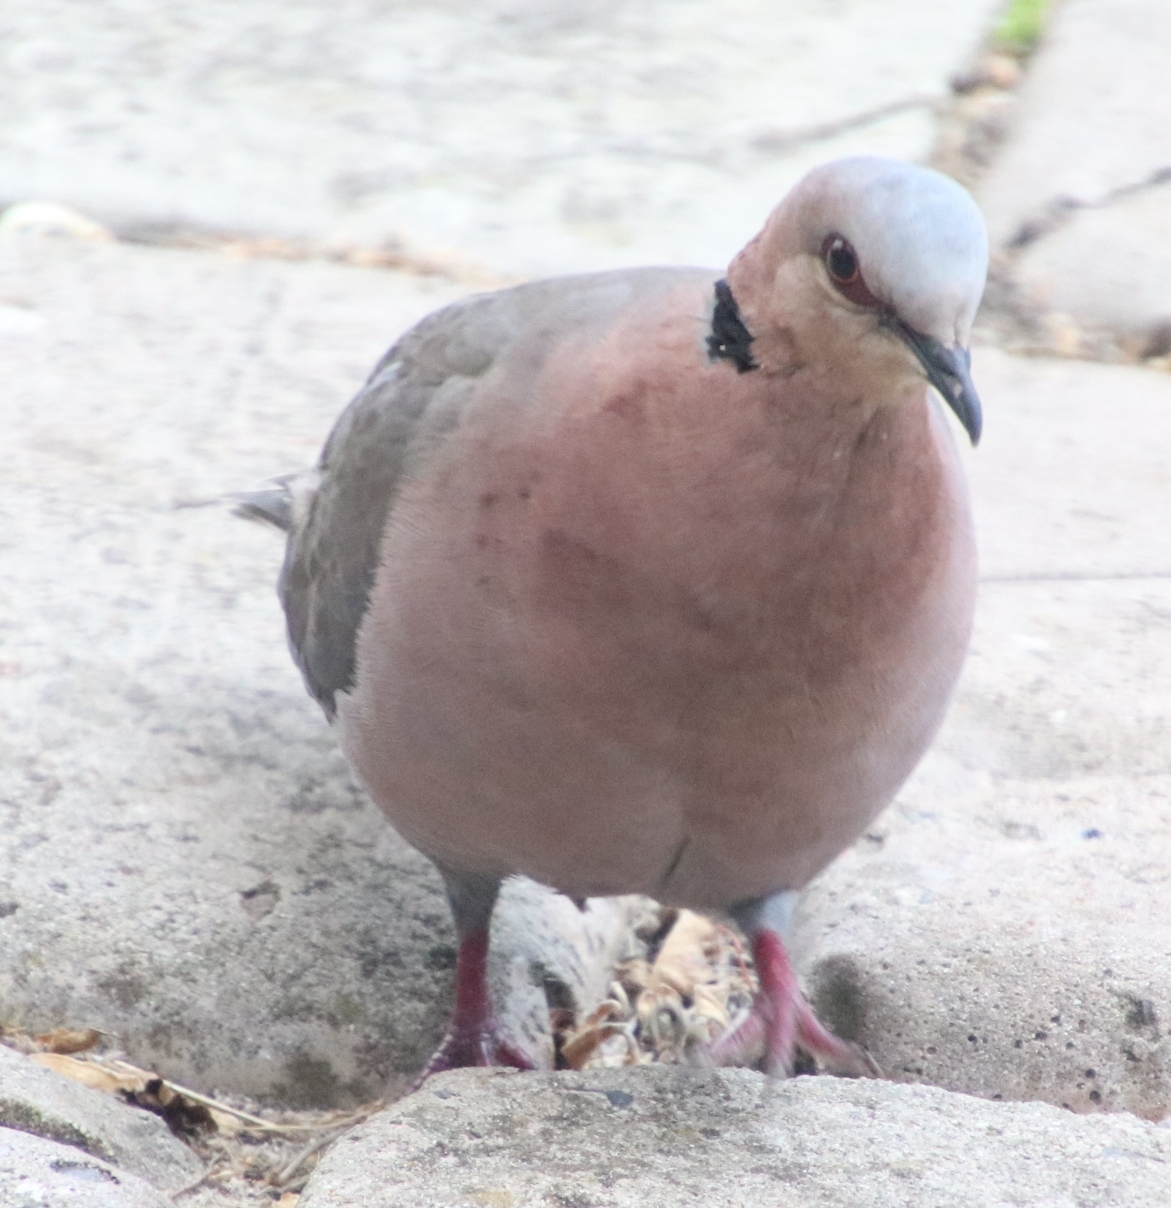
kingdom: Animalia
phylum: Chordata
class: Aves
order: Columbiformes
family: Columbidae
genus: Streptopelia
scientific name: Streptopelia semitorquata
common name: Red-eyed dove
